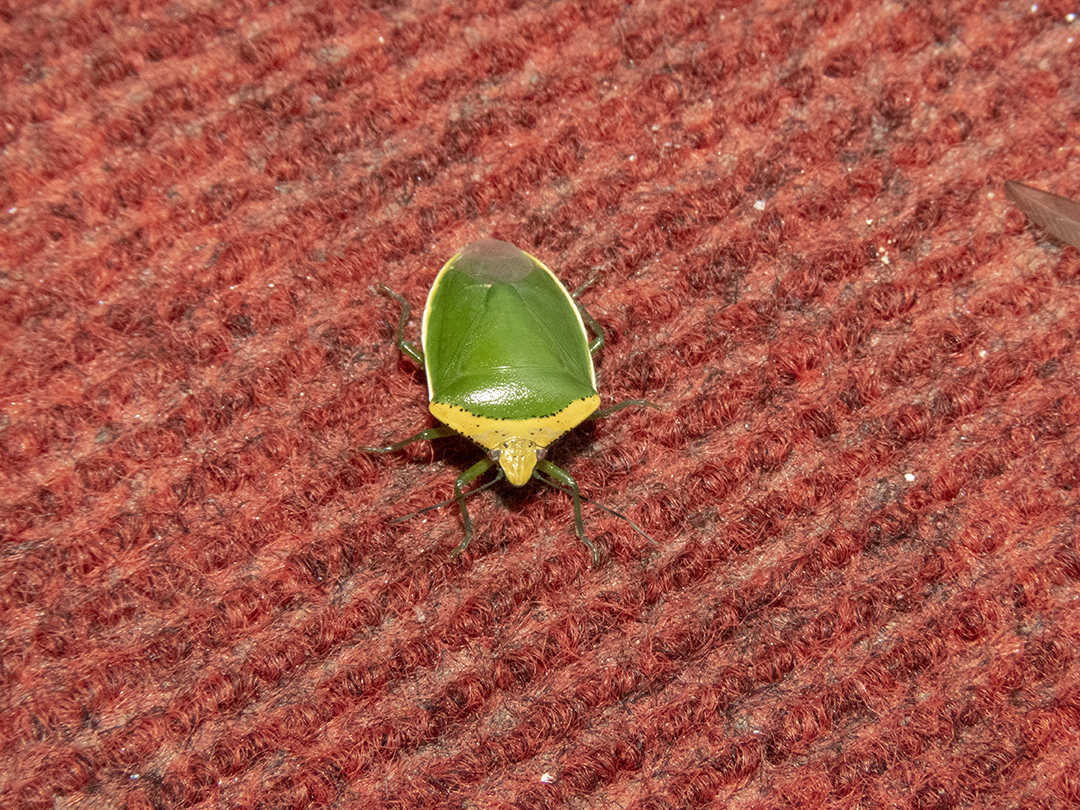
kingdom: Animalia
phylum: Arthropoda
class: Insecta
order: Hemiptera
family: Pentatomidae
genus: Glaucias
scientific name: Glaucias crassus
